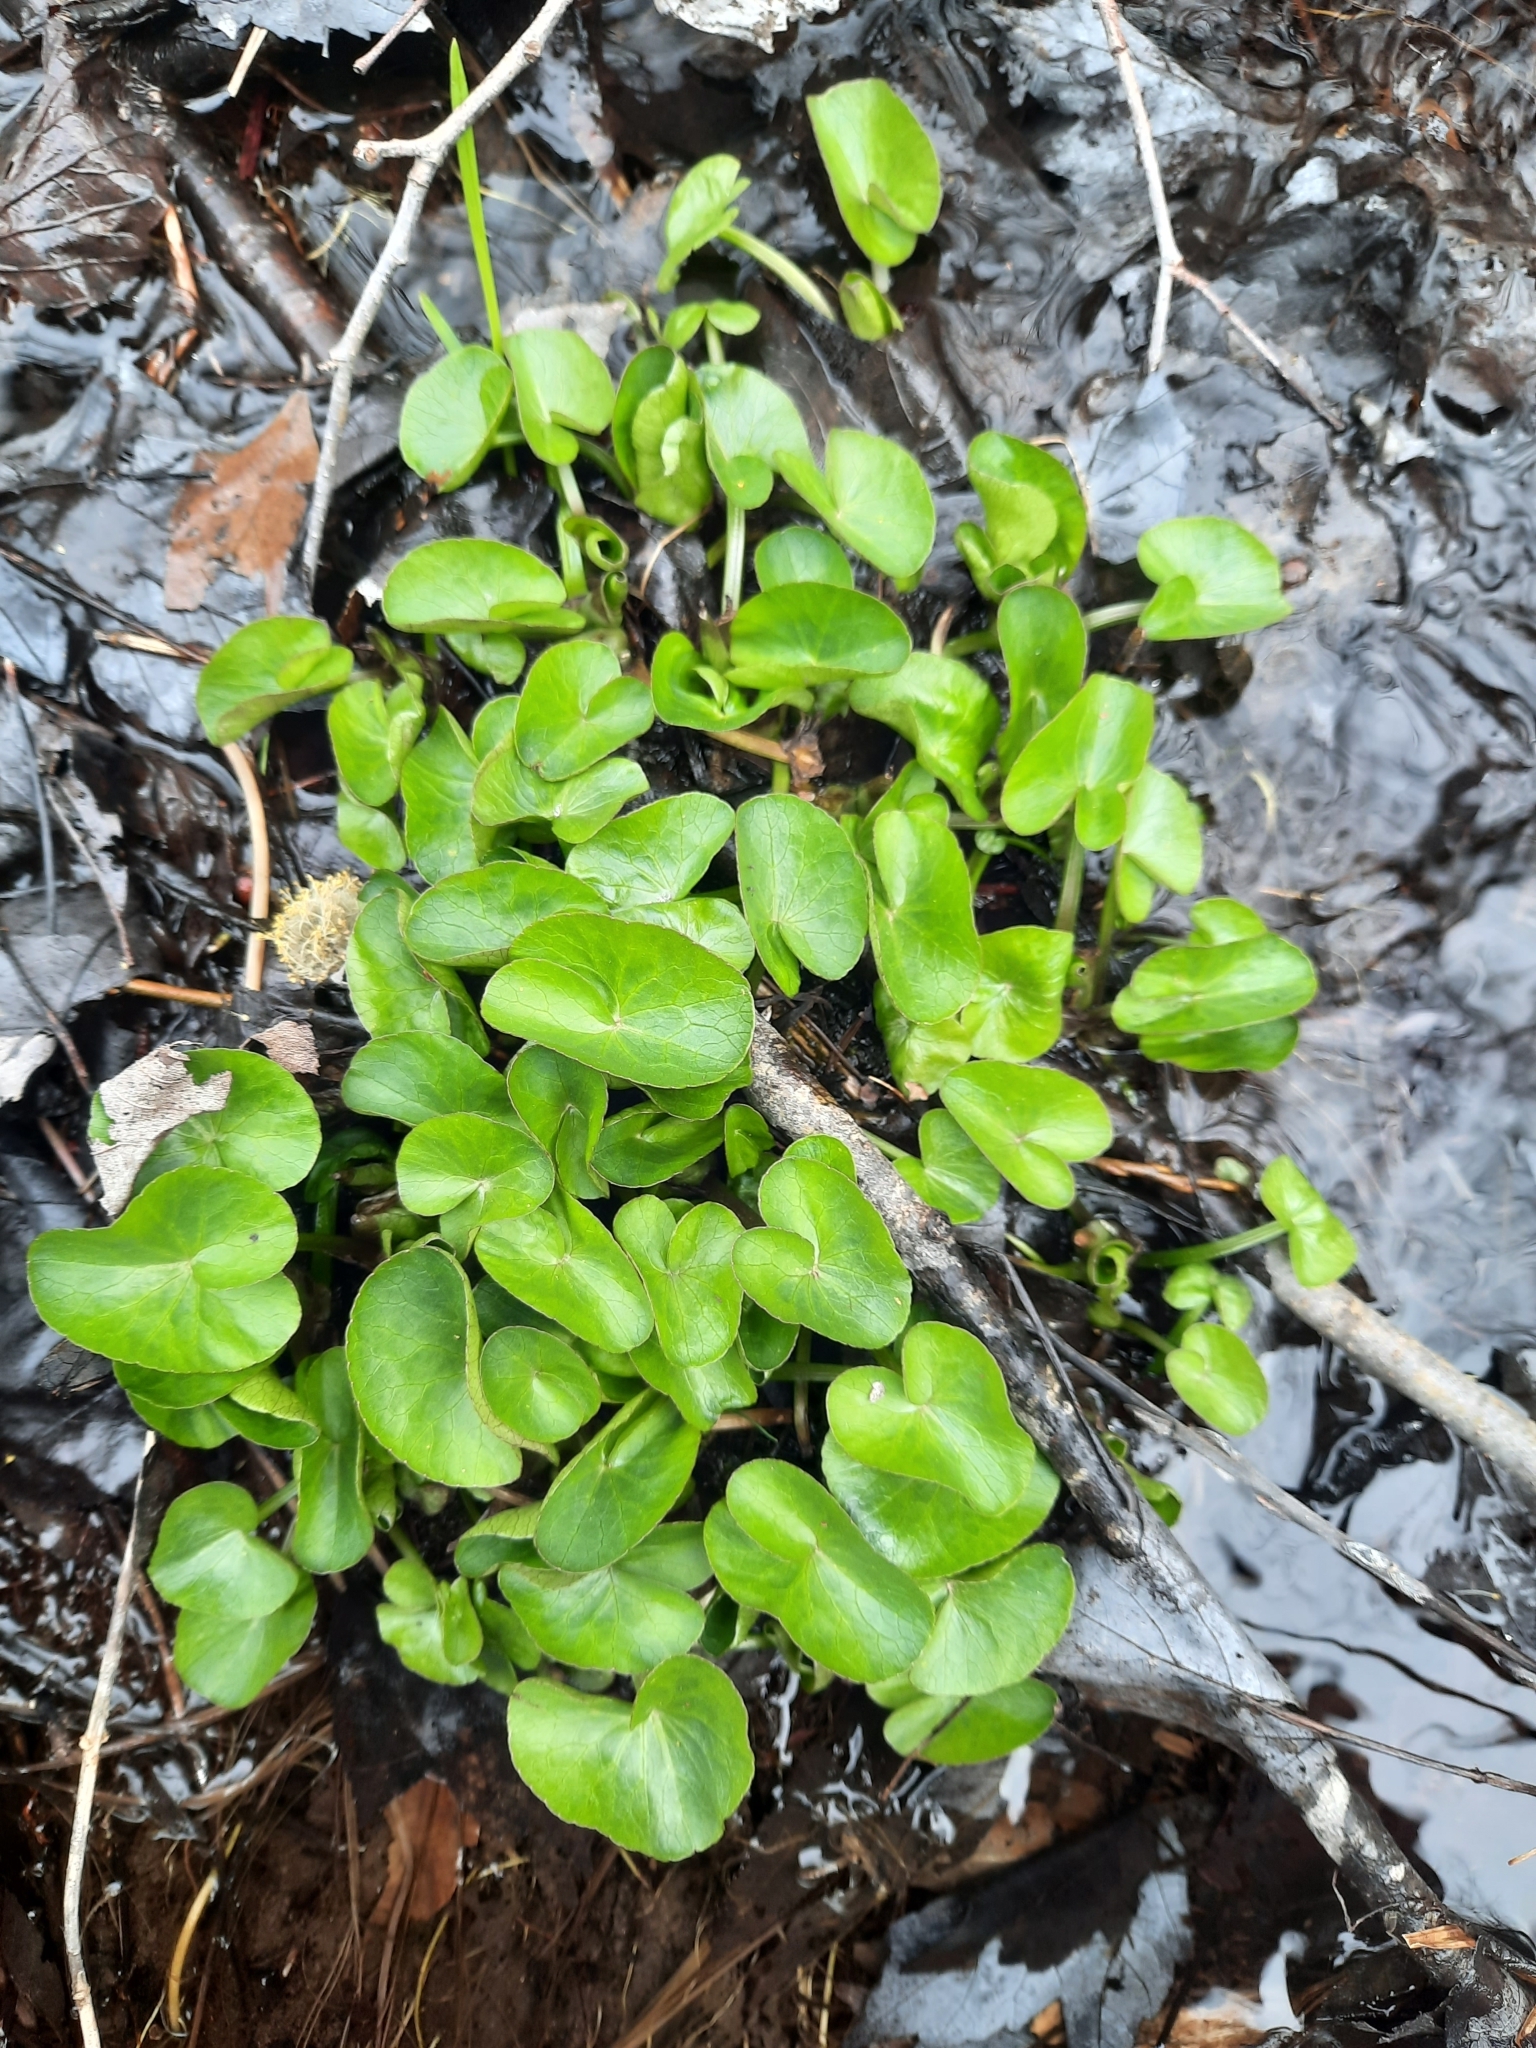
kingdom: Plantae
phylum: Tracheophyta
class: Magnoliopsida
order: Ranunculales
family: Ranunculaceae
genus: Caltha
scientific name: Caltha palustris
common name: Marsh marigold
